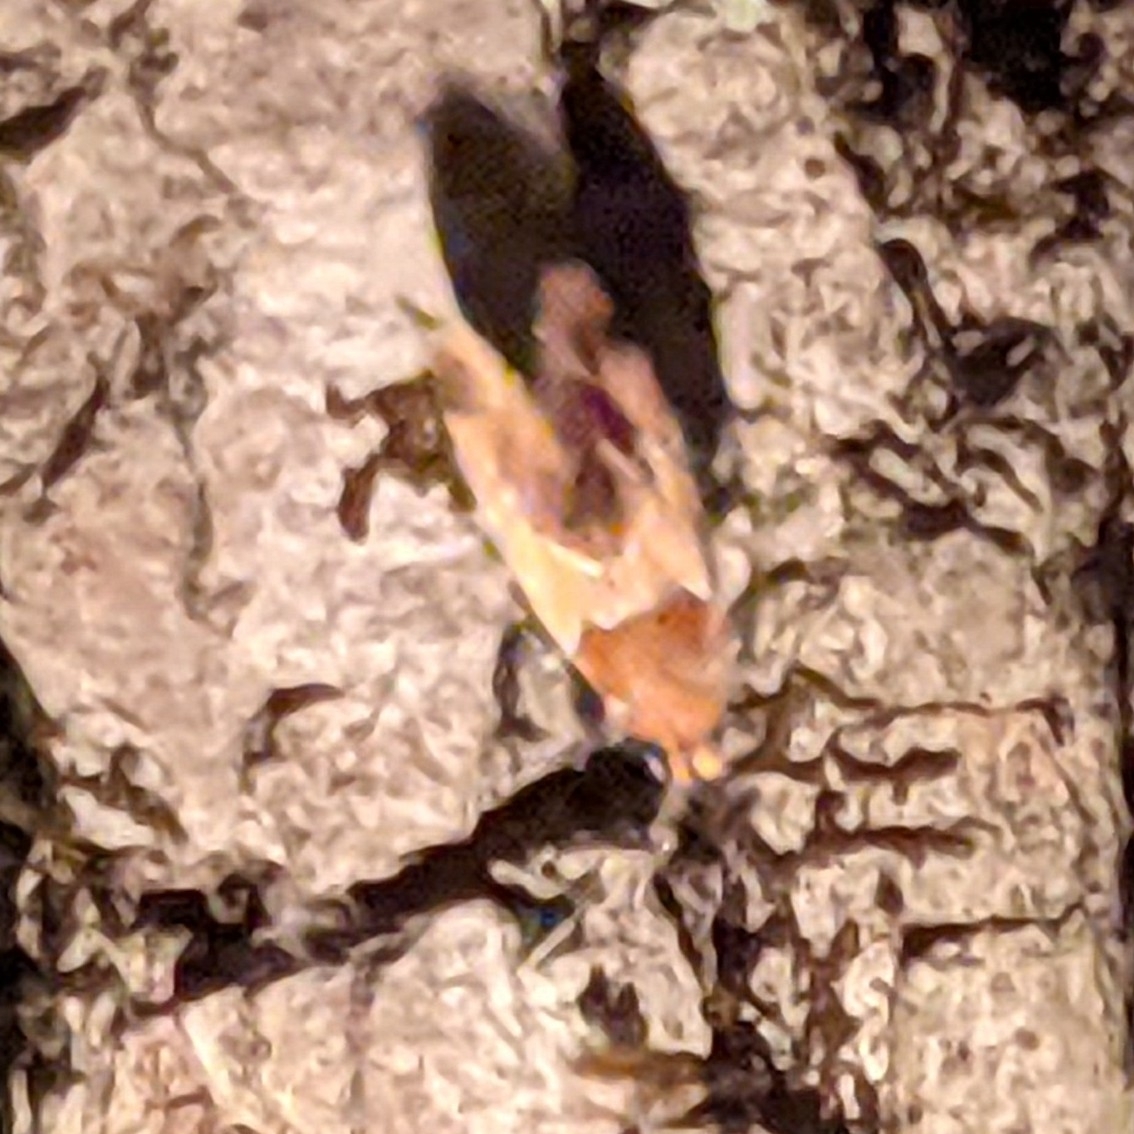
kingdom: Animalia
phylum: Arthropoda
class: Insecta
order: Lepidoptera
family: Oecophoridae
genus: Callima
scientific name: Callima argenticinctella
